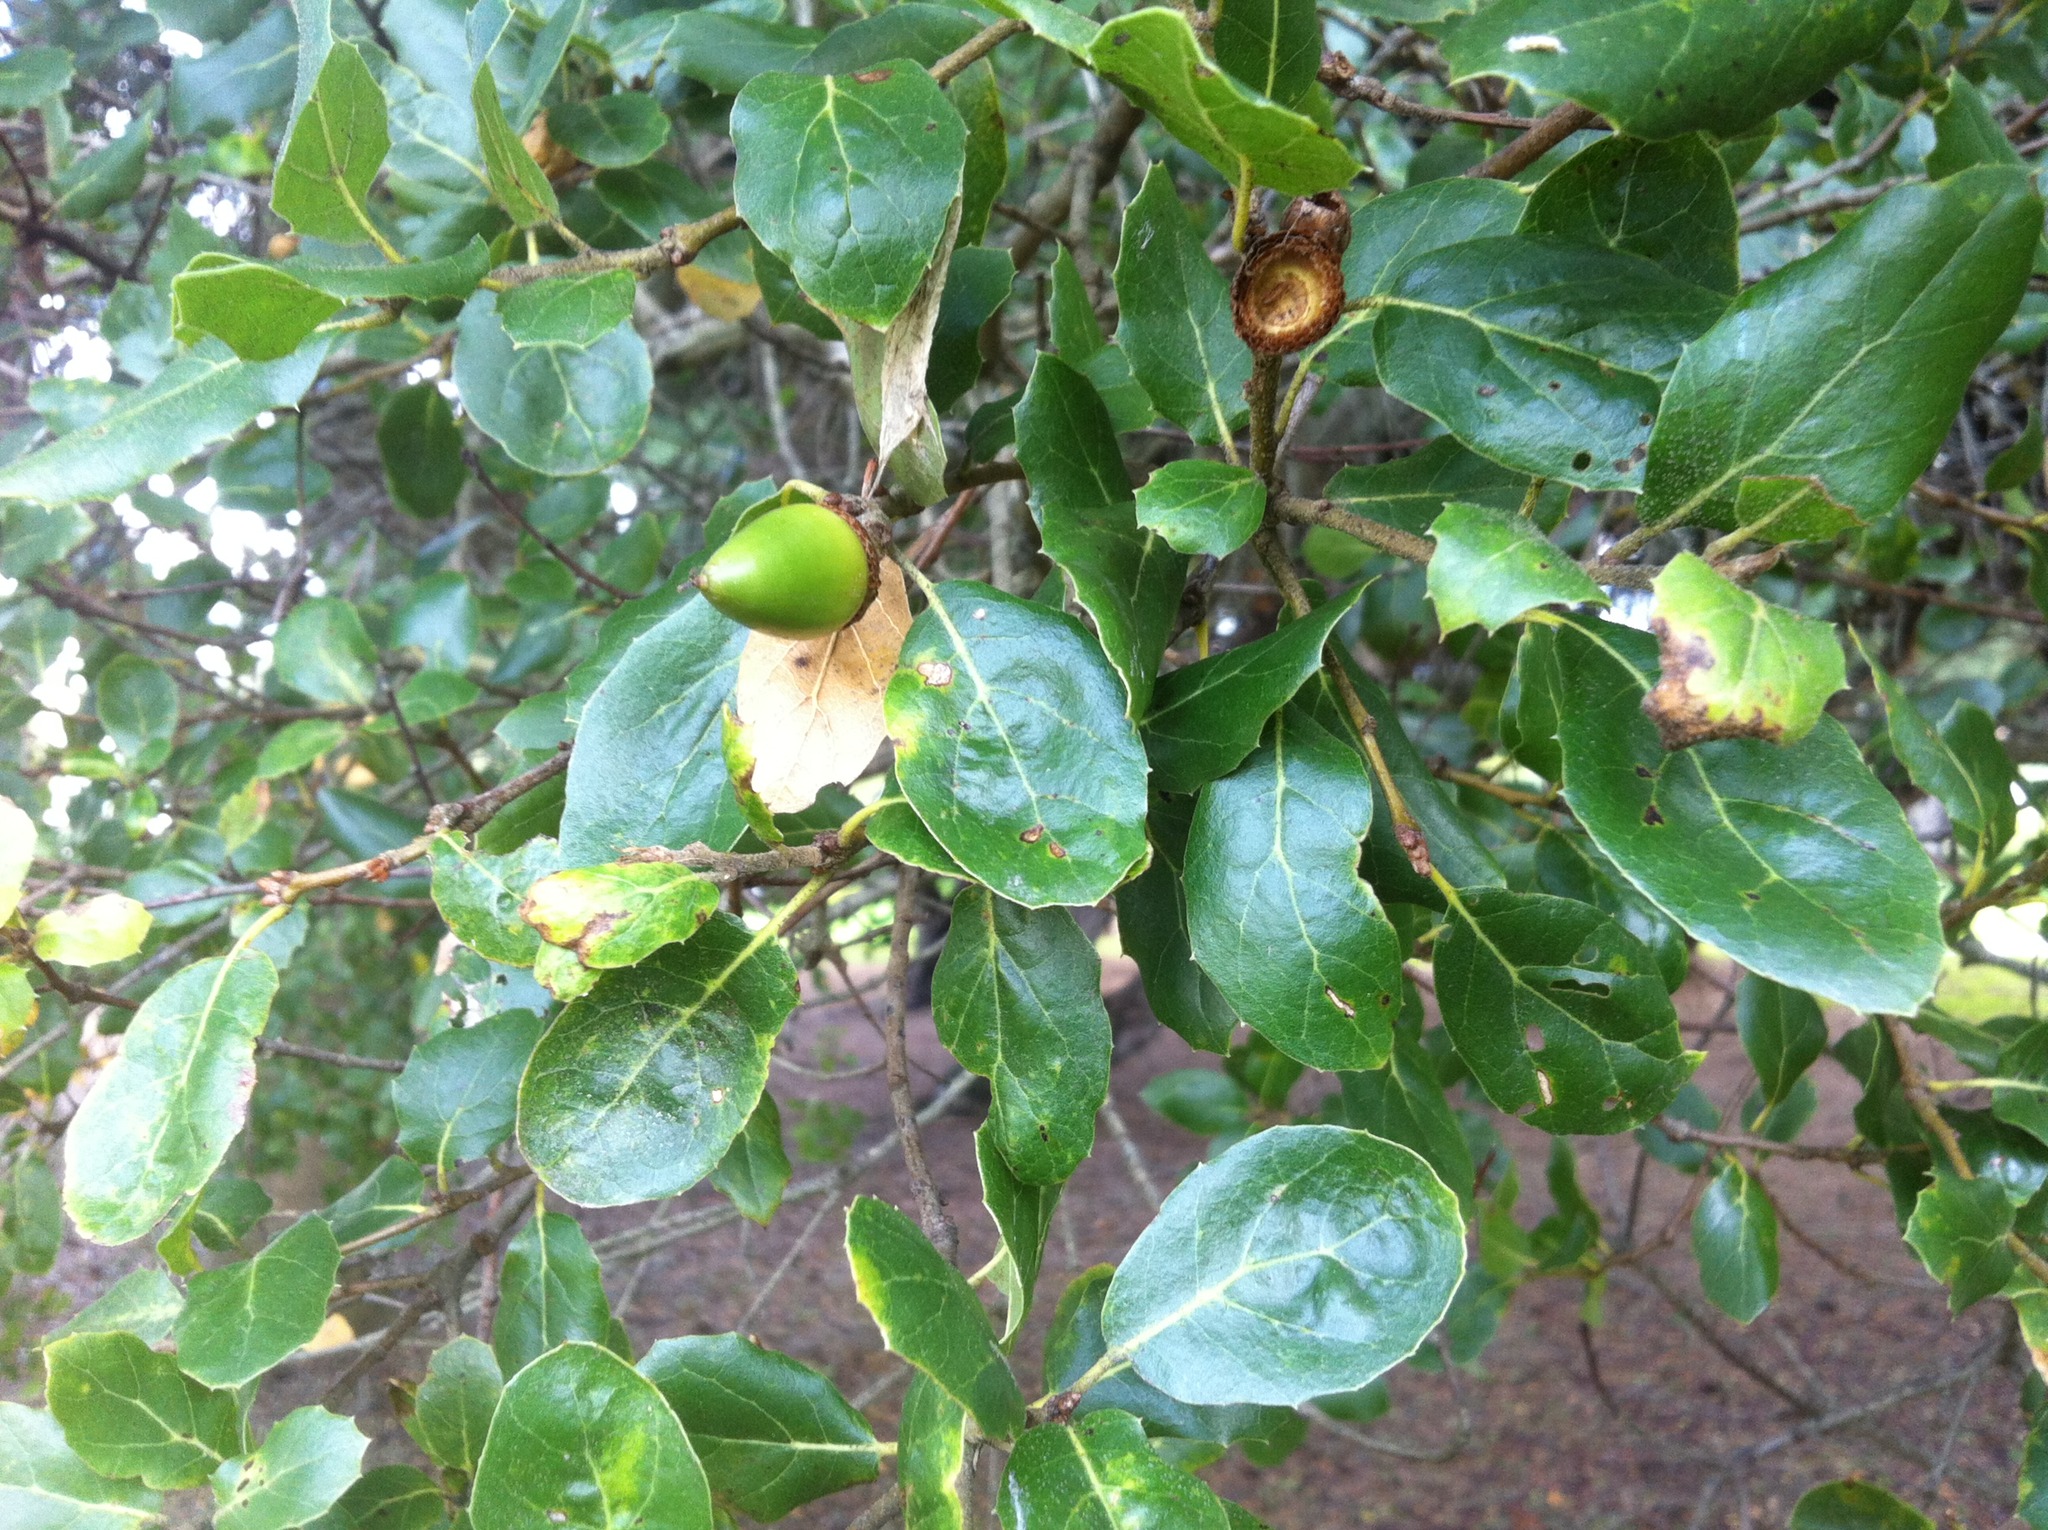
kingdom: Plantae
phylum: Tracheophyta
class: Magnoliopsida
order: Fagales
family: Fagaceae
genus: Quercus
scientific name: Quercus agrifolia
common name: California live oak
